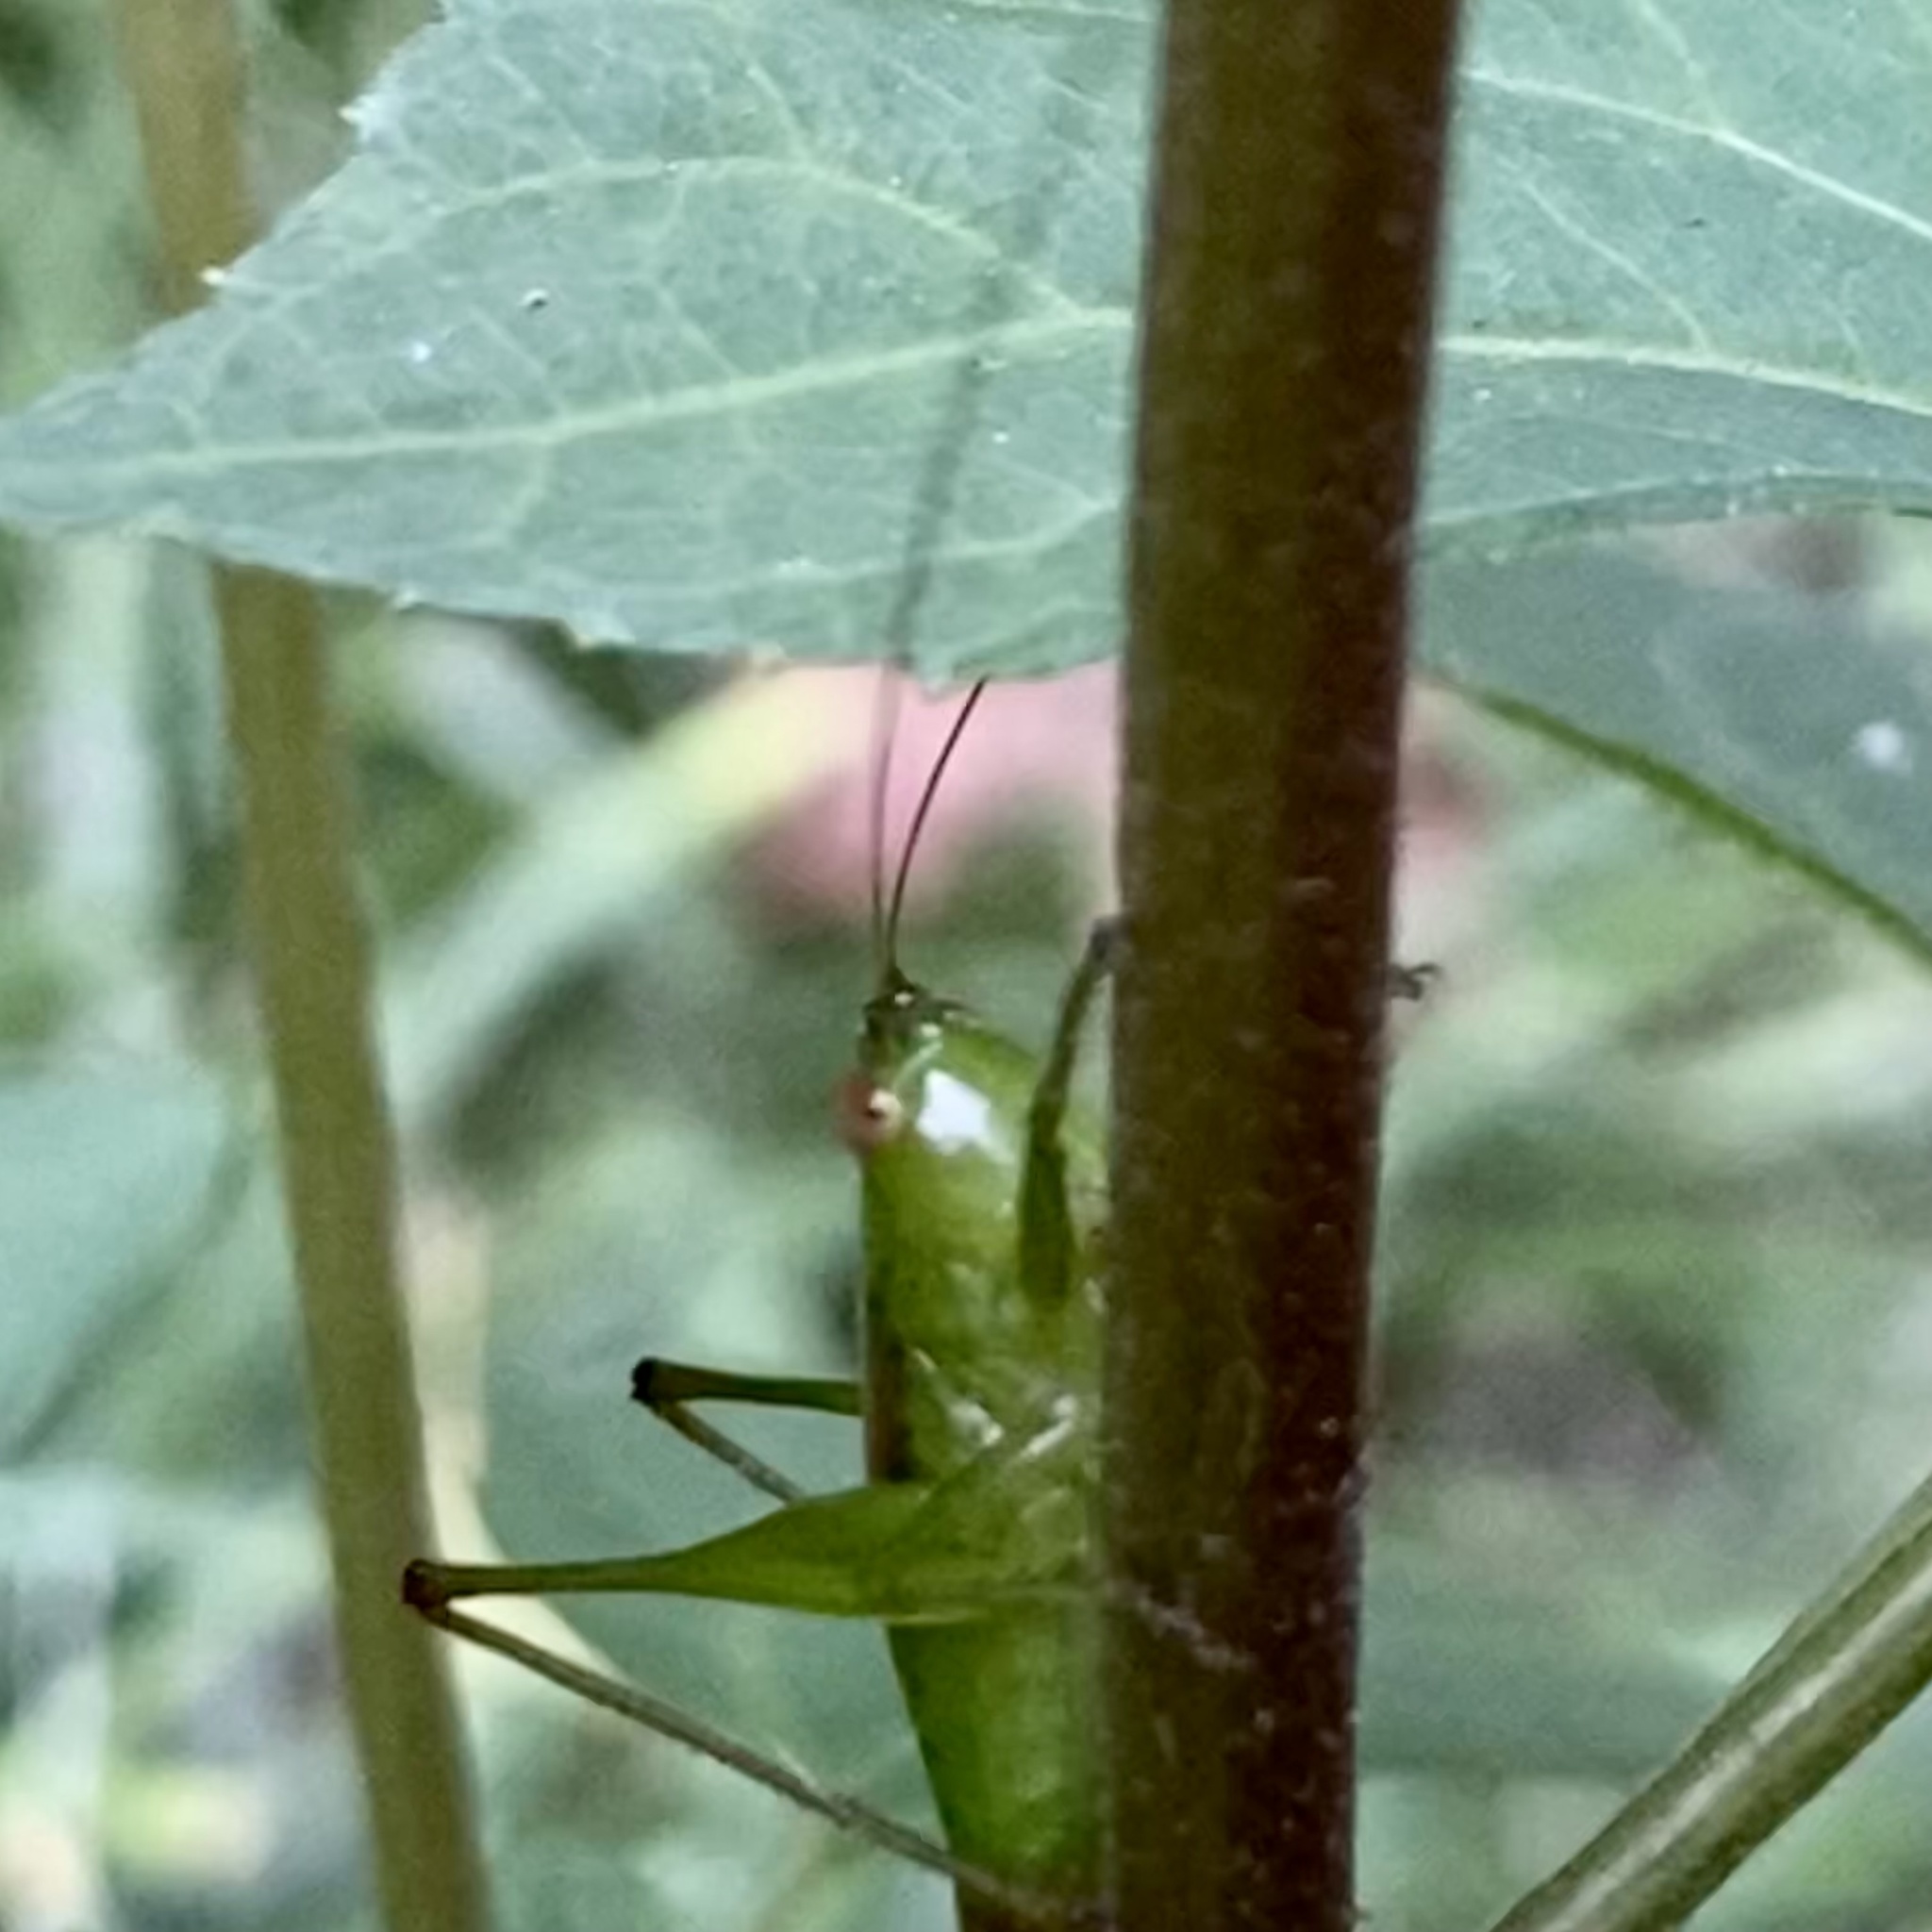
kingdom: Animalia
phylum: Arthropoda
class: Insecta
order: Orthoptera
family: Tettigoniidae
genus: Conocephalus
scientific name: Conocephalus brevipennis
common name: Short-winged meadow katydid
